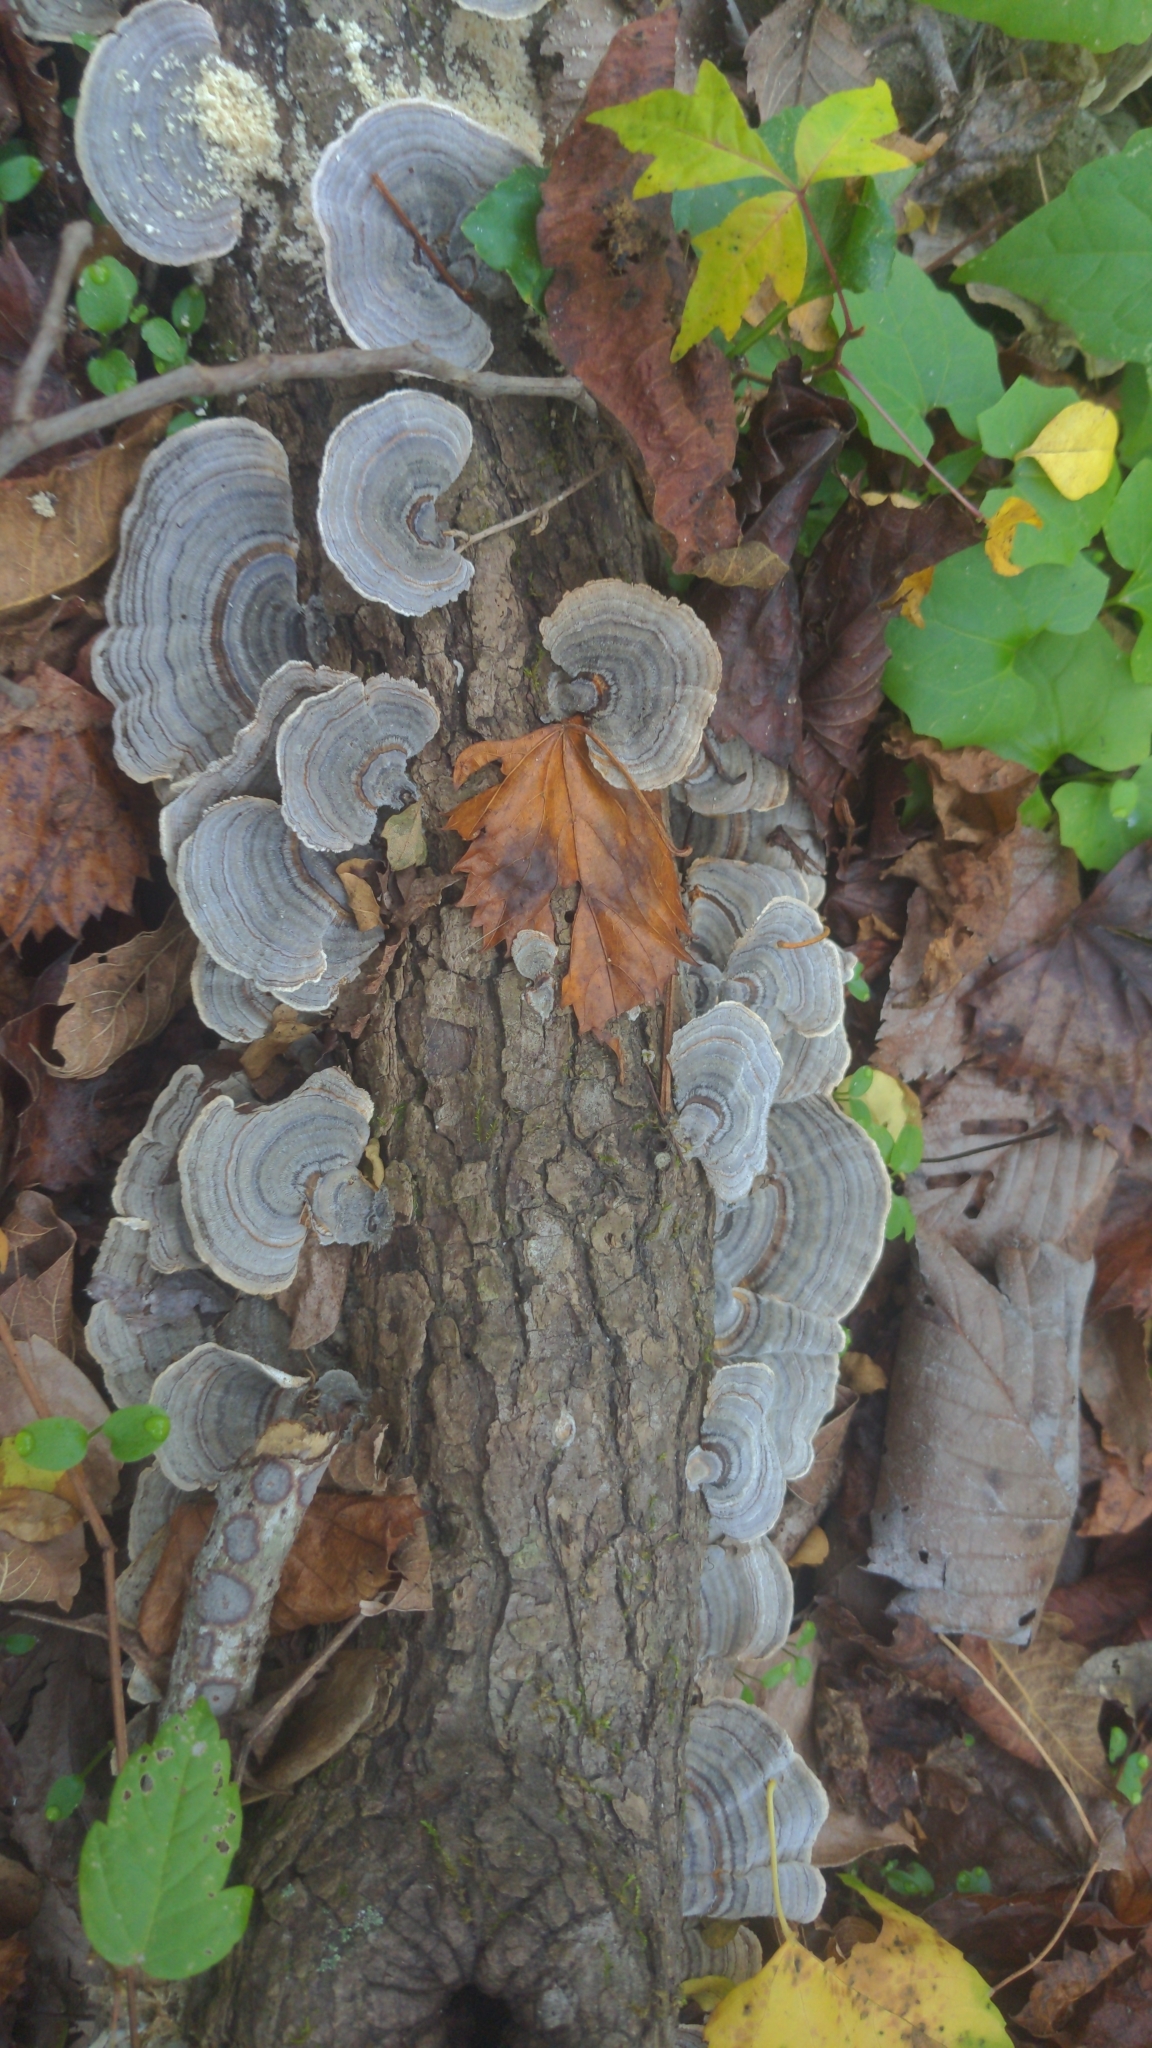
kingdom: Fungi
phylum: Basidiomycota
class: Agaricomycetes
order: Polyporales
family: Polyporaceae
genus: Trametes
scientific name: Trametes versicolor
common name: Turkeytail
